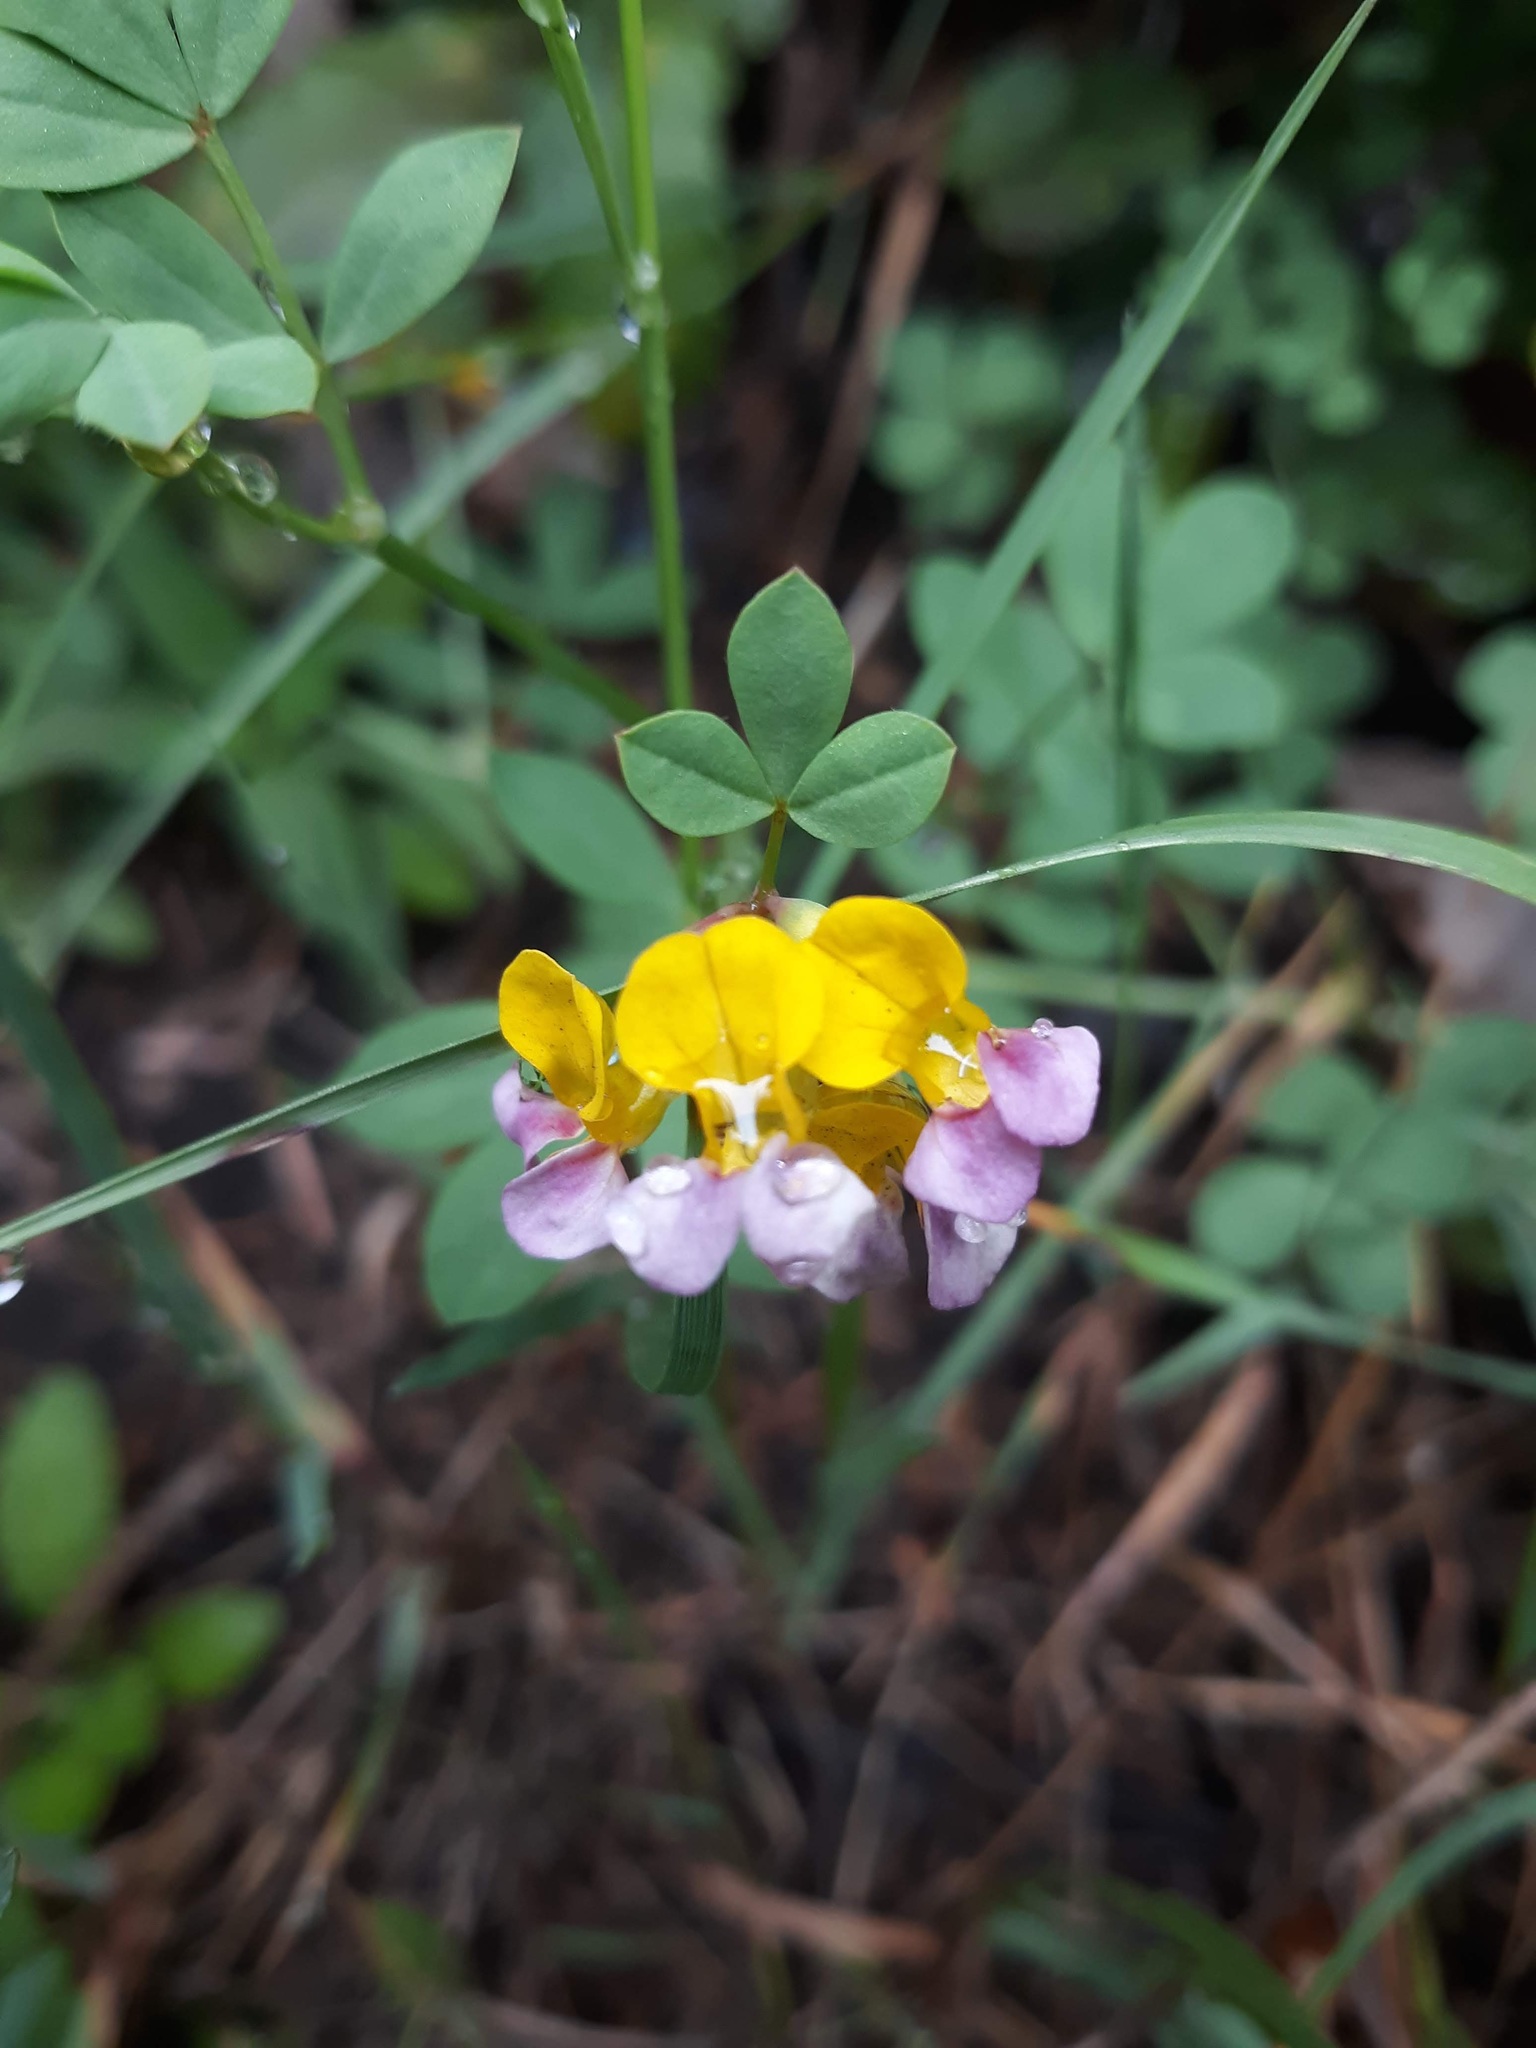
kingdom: Plantae
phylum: Tracheophyta
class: Magnoliopsida
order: Fabales
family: Fabaceae
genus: Hosackia
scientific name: Hosackia gracilis
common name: Seaside bird's-foot lotus
